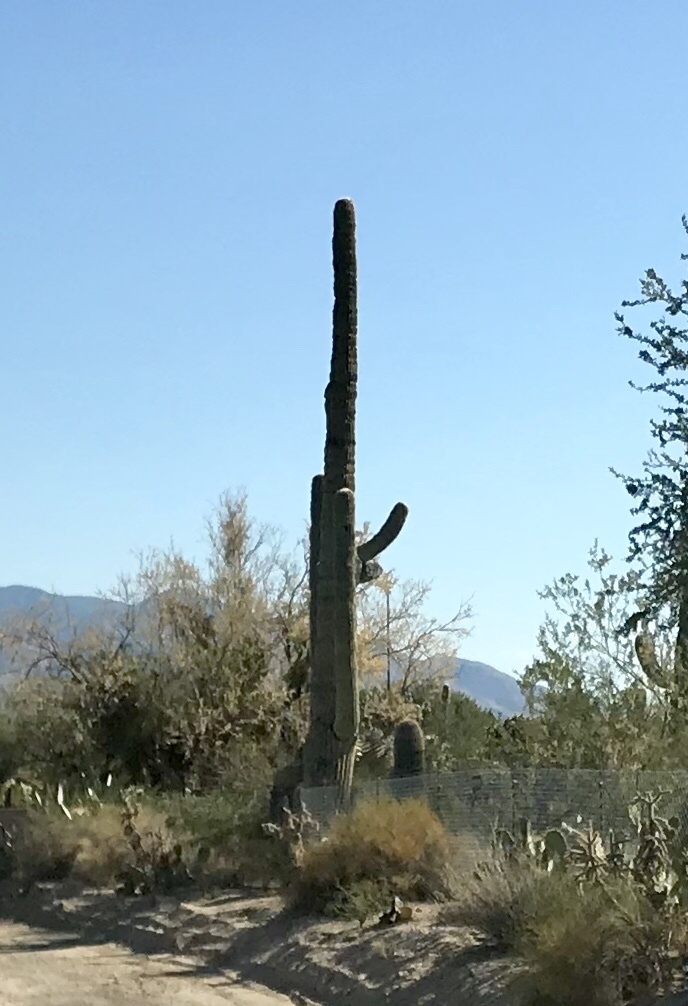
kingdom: Plantae
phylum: Tracheophyta
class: Magnoliopsida
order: Caryophyllales
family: Cactaceae
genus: Carnegiea
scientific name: Carnegiea gigantea
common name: Saguaro
